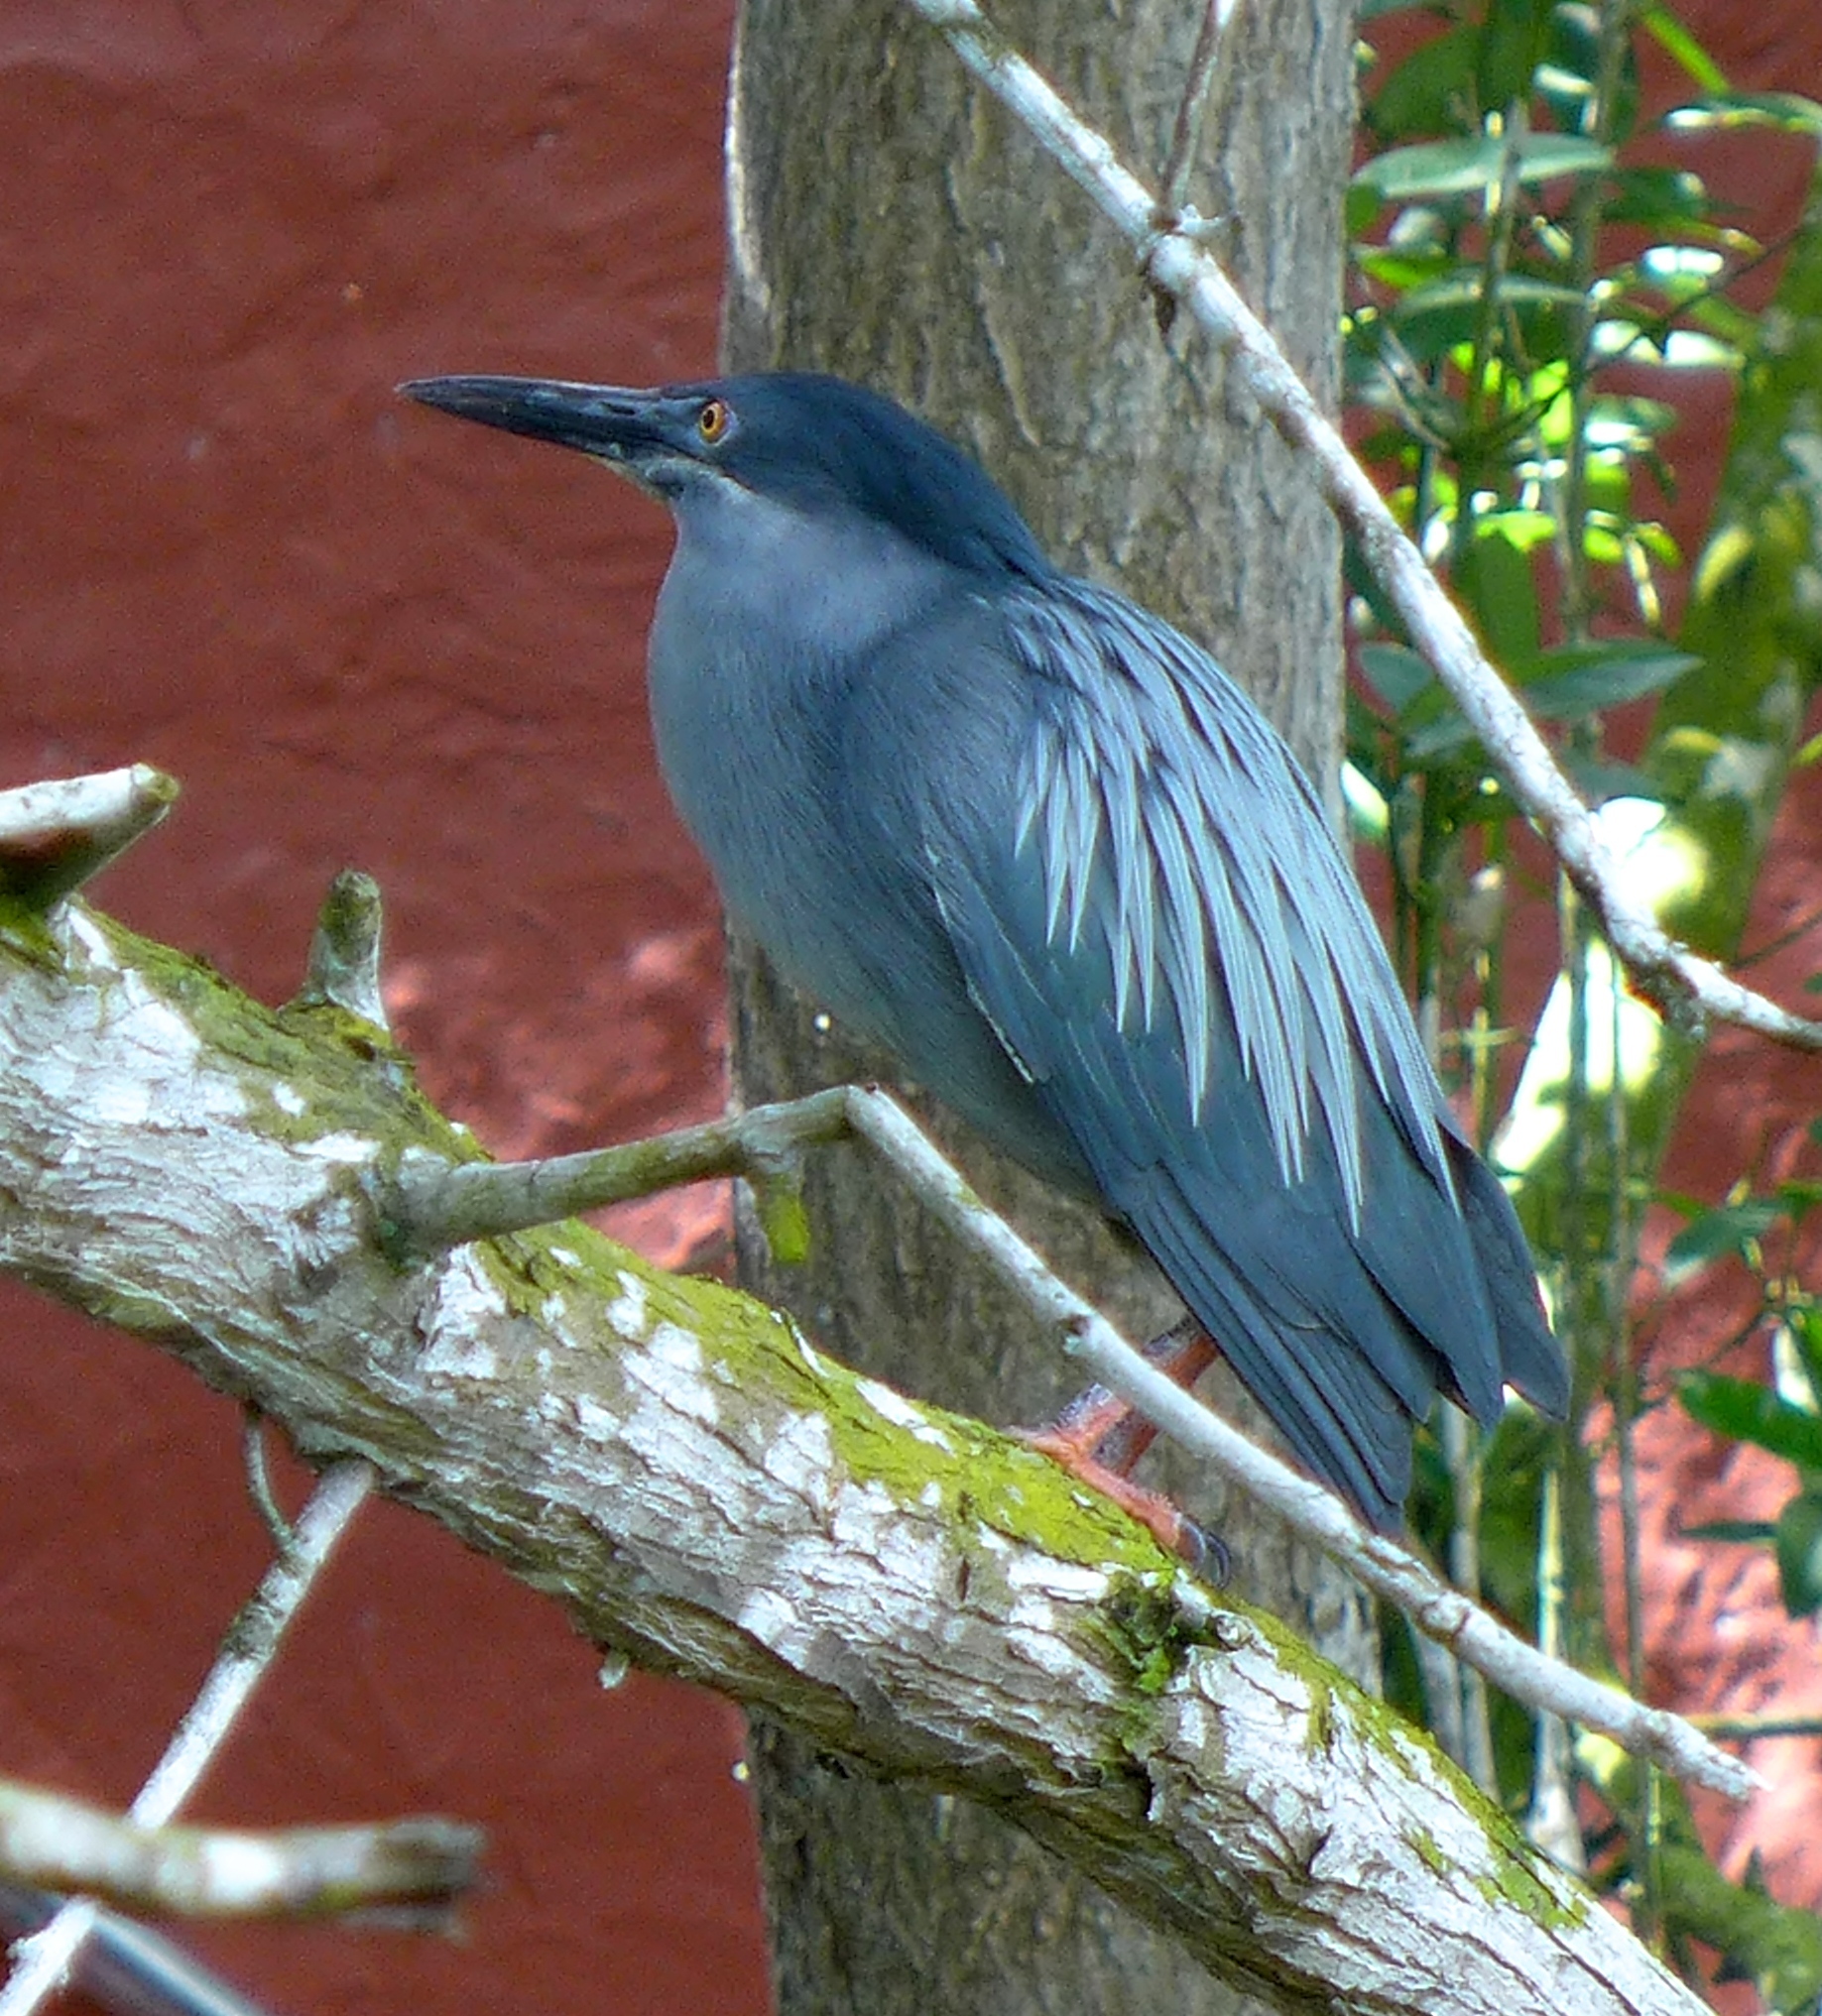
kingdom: Animalia
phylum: Chordata
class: Aves
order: Pelecaniformes
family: Ardeidae
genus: Butorides
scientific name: Butorides striata
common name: Striated heron
